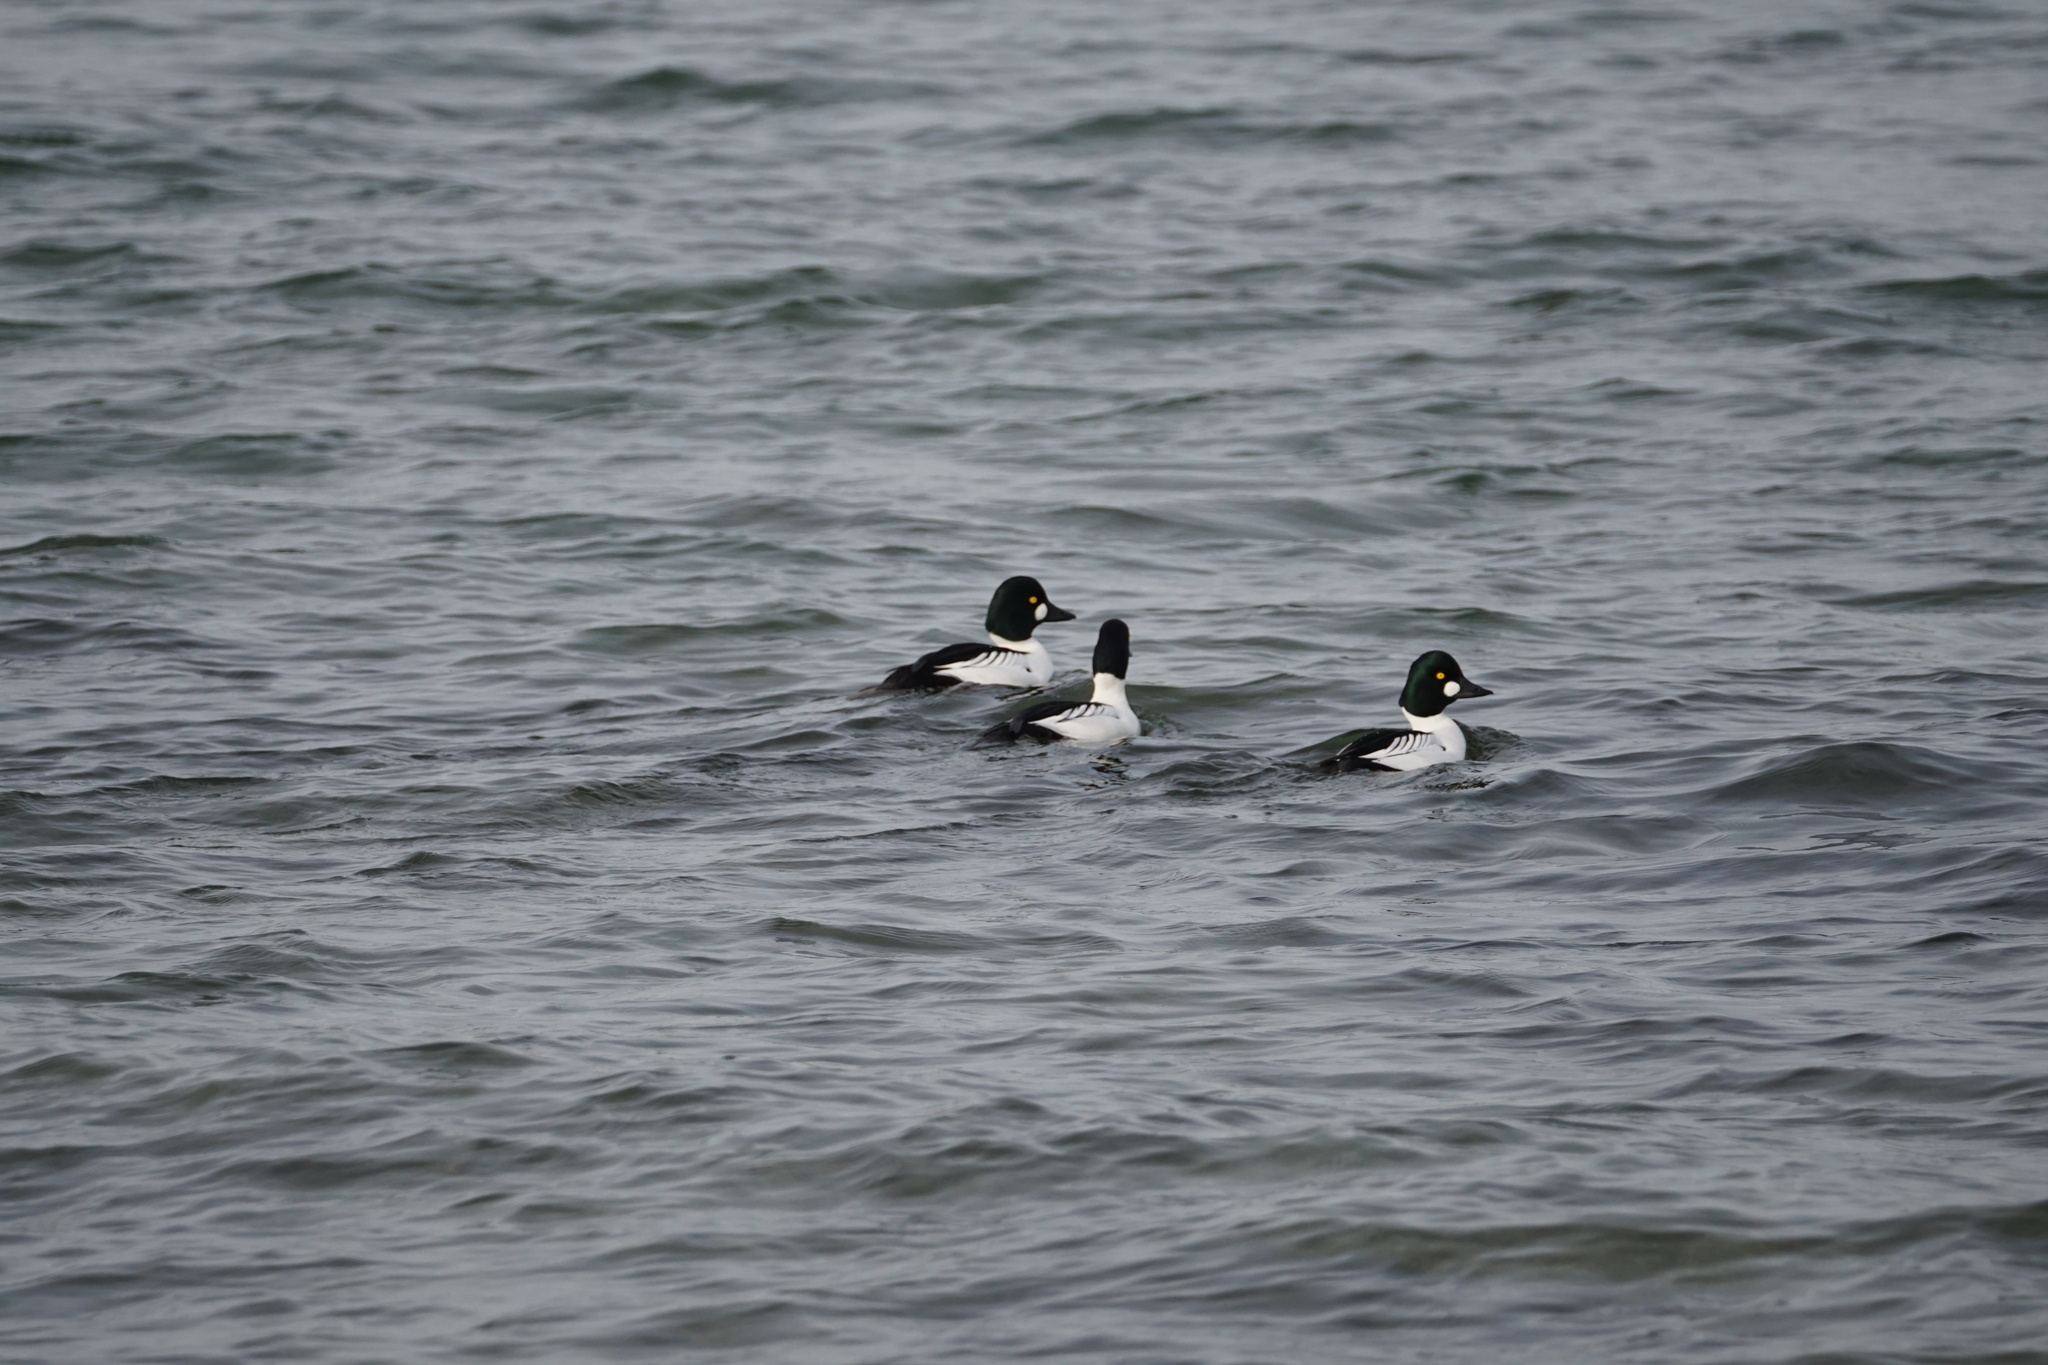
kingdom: Animalia
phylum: Chordata
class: Aves
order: Anseriformes
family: Anatidae
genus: Bucephala
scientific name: Bucephala clangula
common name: Common goldeneye
